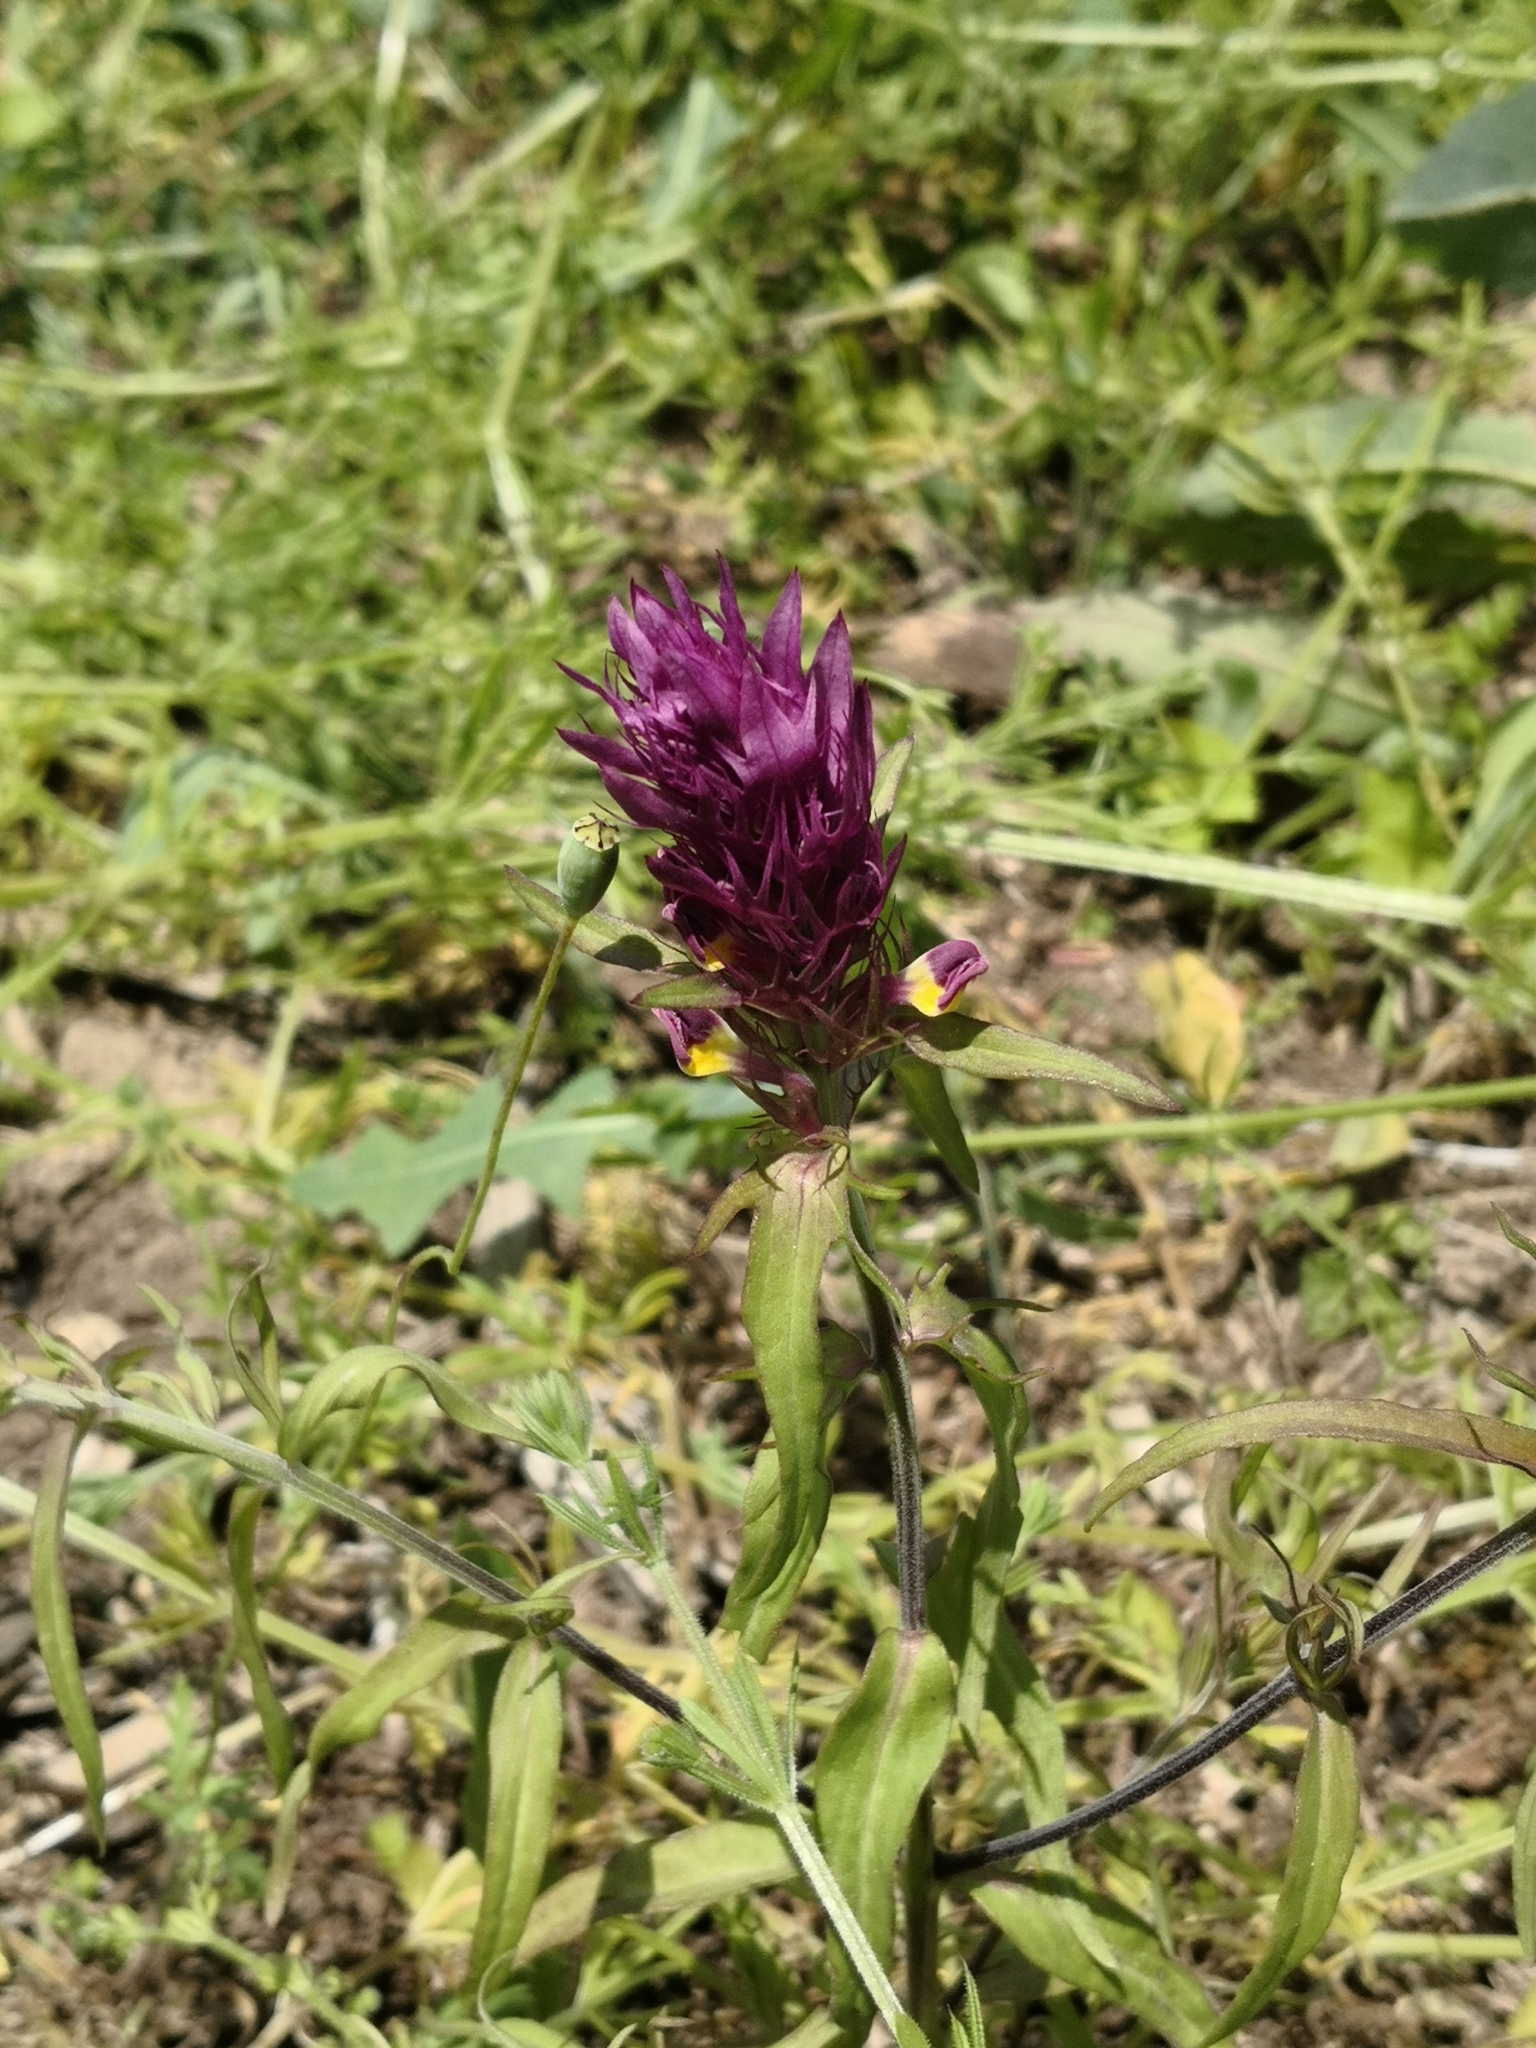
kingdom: Plantae
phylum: Tracheophyta
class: Magnoliopsida
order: Lamiales
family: Orobanchaceae
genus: Melampyrum
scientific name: Melampyrum arvense
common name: Field cow-wheat
